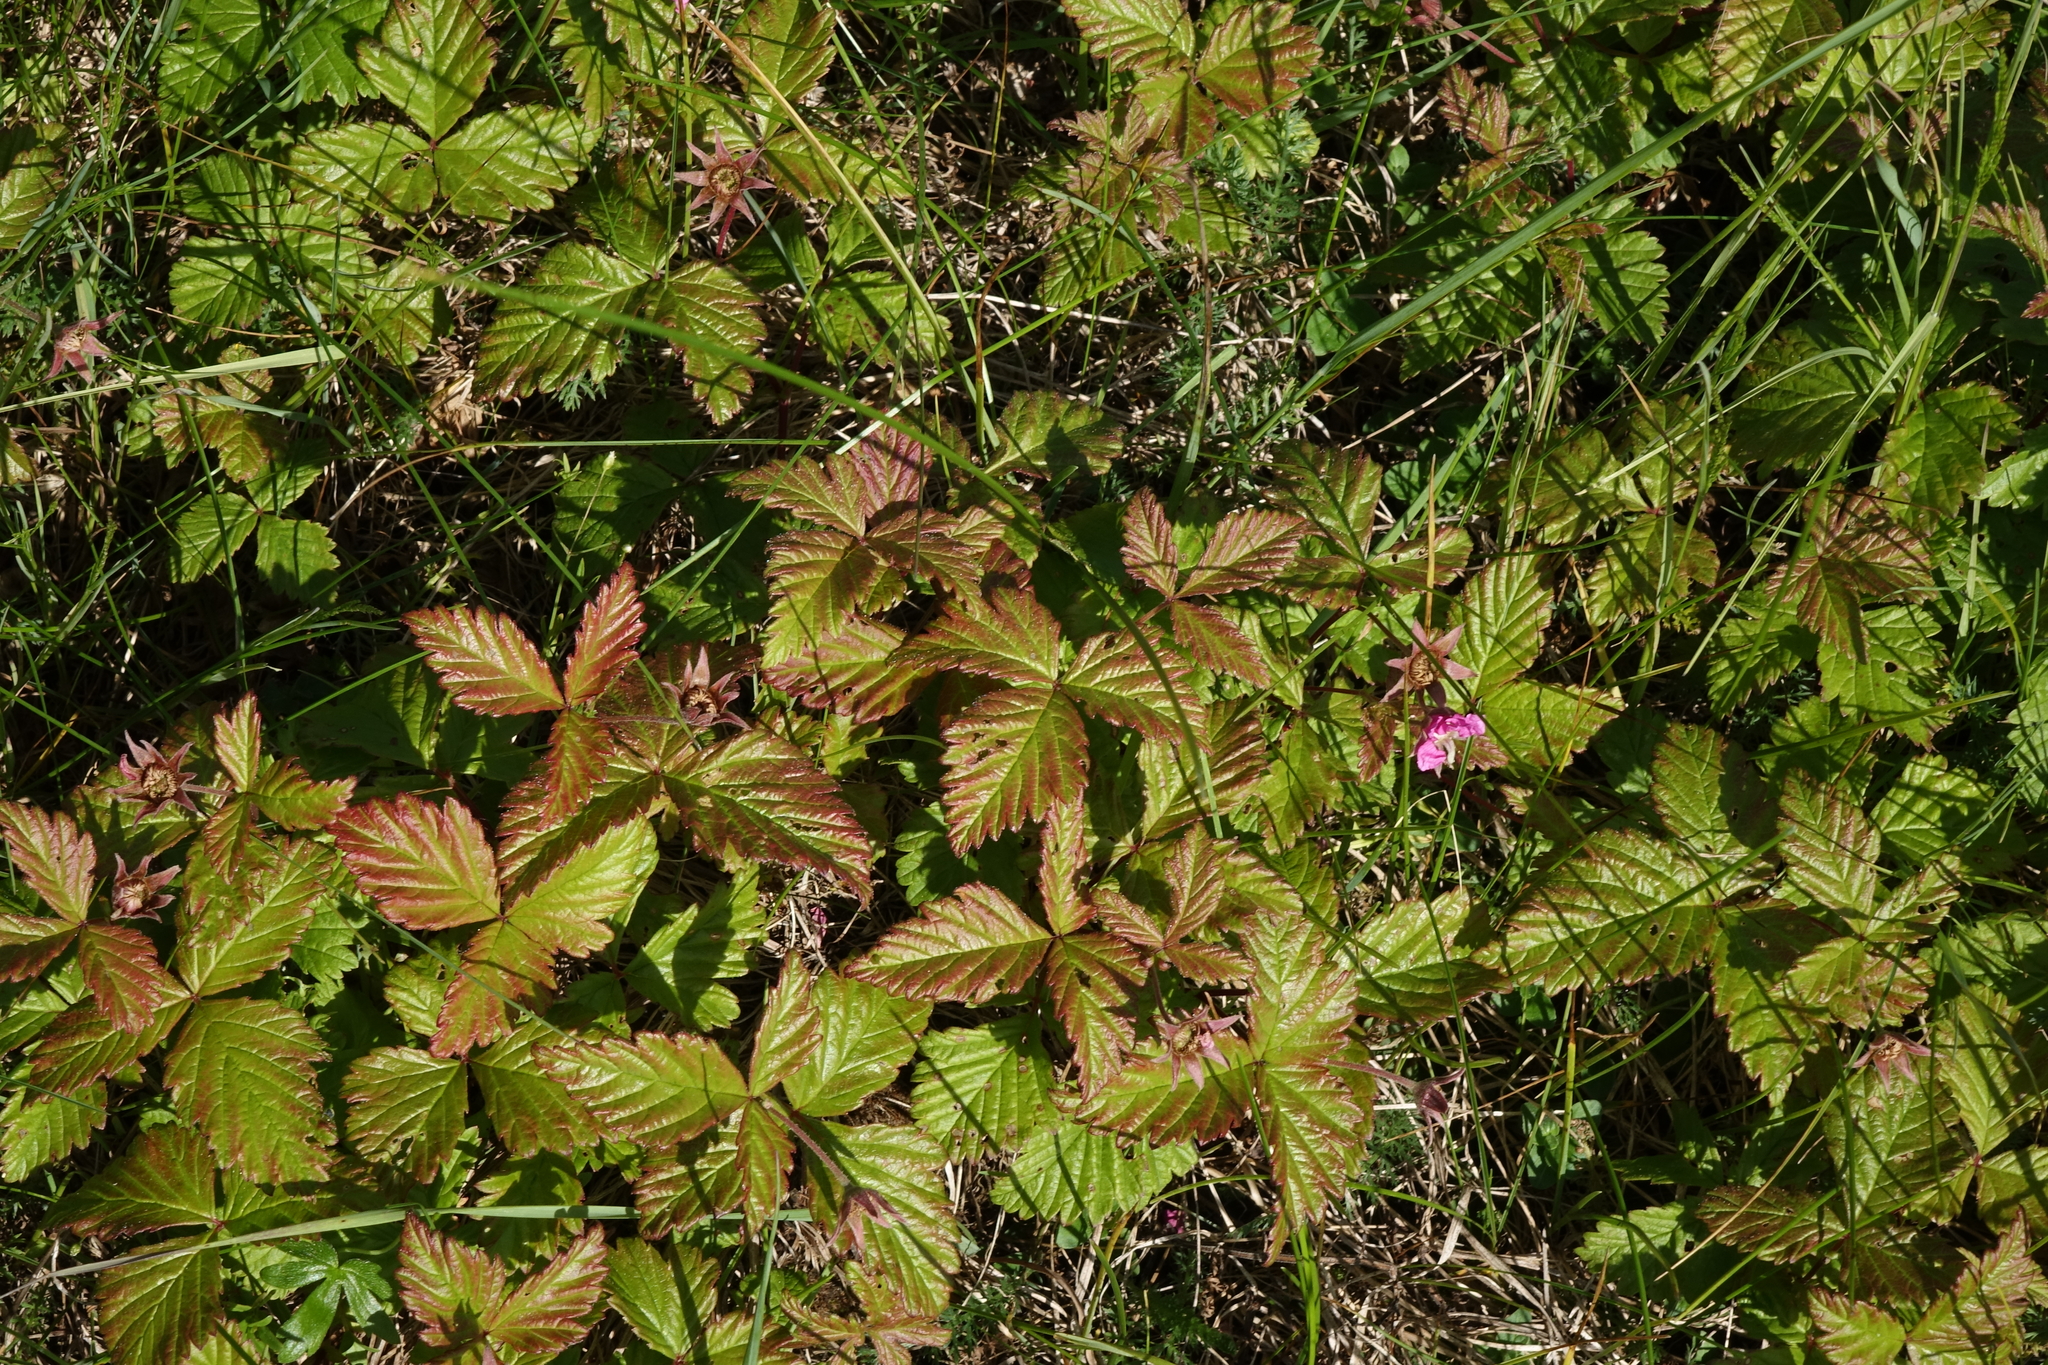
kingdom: Plantae
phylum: Tracheophyta
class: Magnoliopsida
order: Rosales
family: Rosaceae
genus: Rubus
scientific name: Rubus arcticus
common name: Arctic bramble
